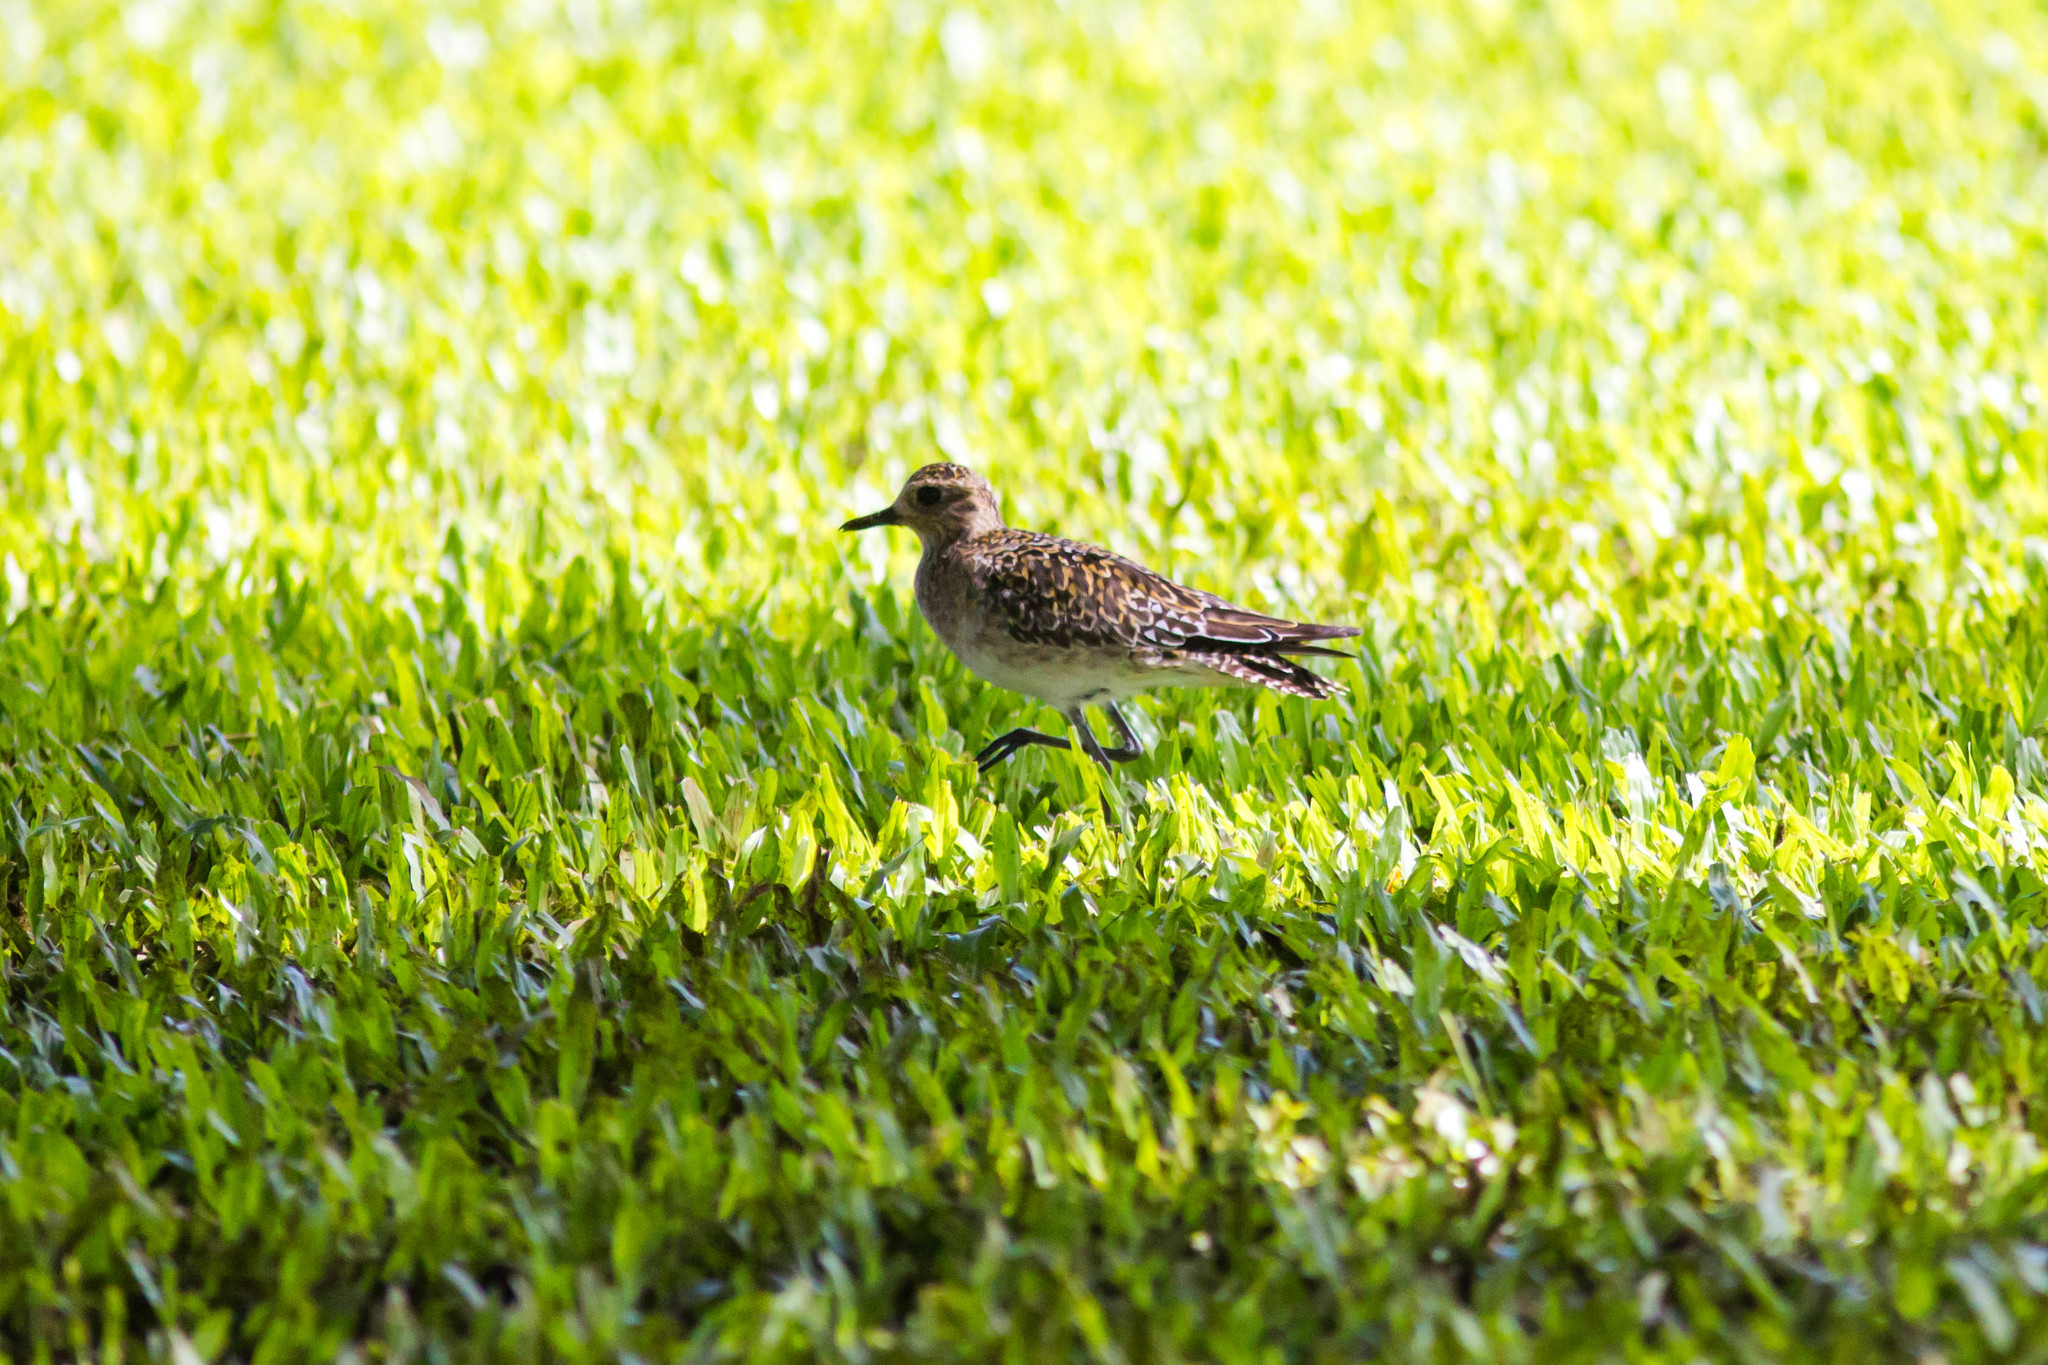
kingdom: Animalia
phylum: Chordata
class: Aves
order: Charadriiformes
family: Charadriidae
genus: Pluvialis
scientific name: Pluvialis fulva
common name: Pacific golden plover
